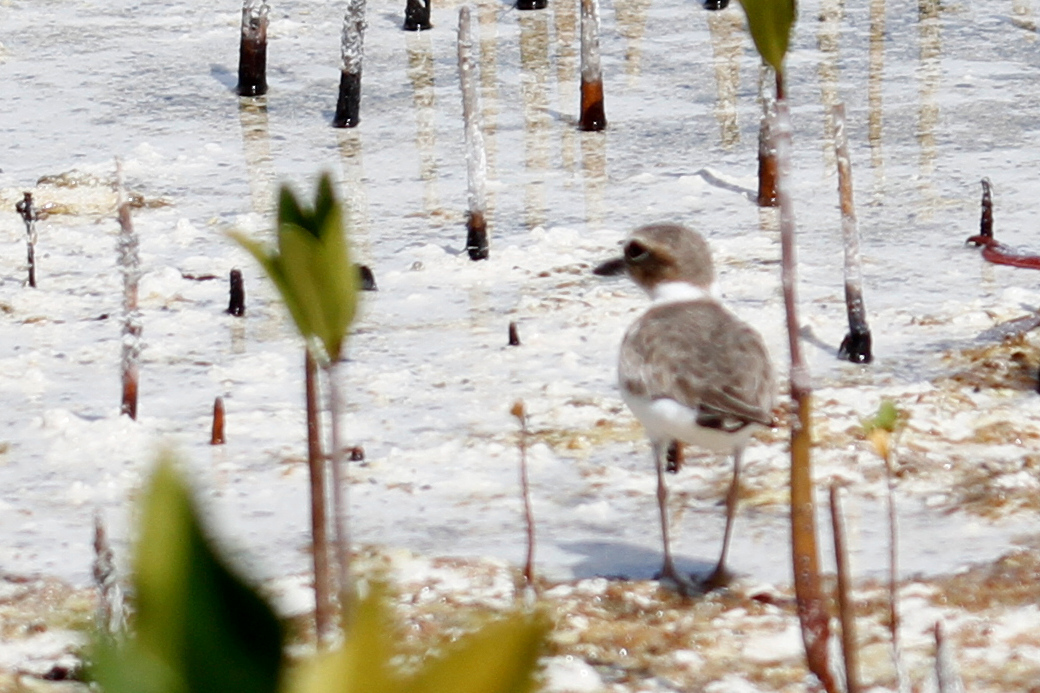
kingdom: Animalia
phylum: Chordata
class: Aves
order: Charadriiformes
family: Charadriidae
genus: Anarhynchus
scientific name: Anarhynchus
